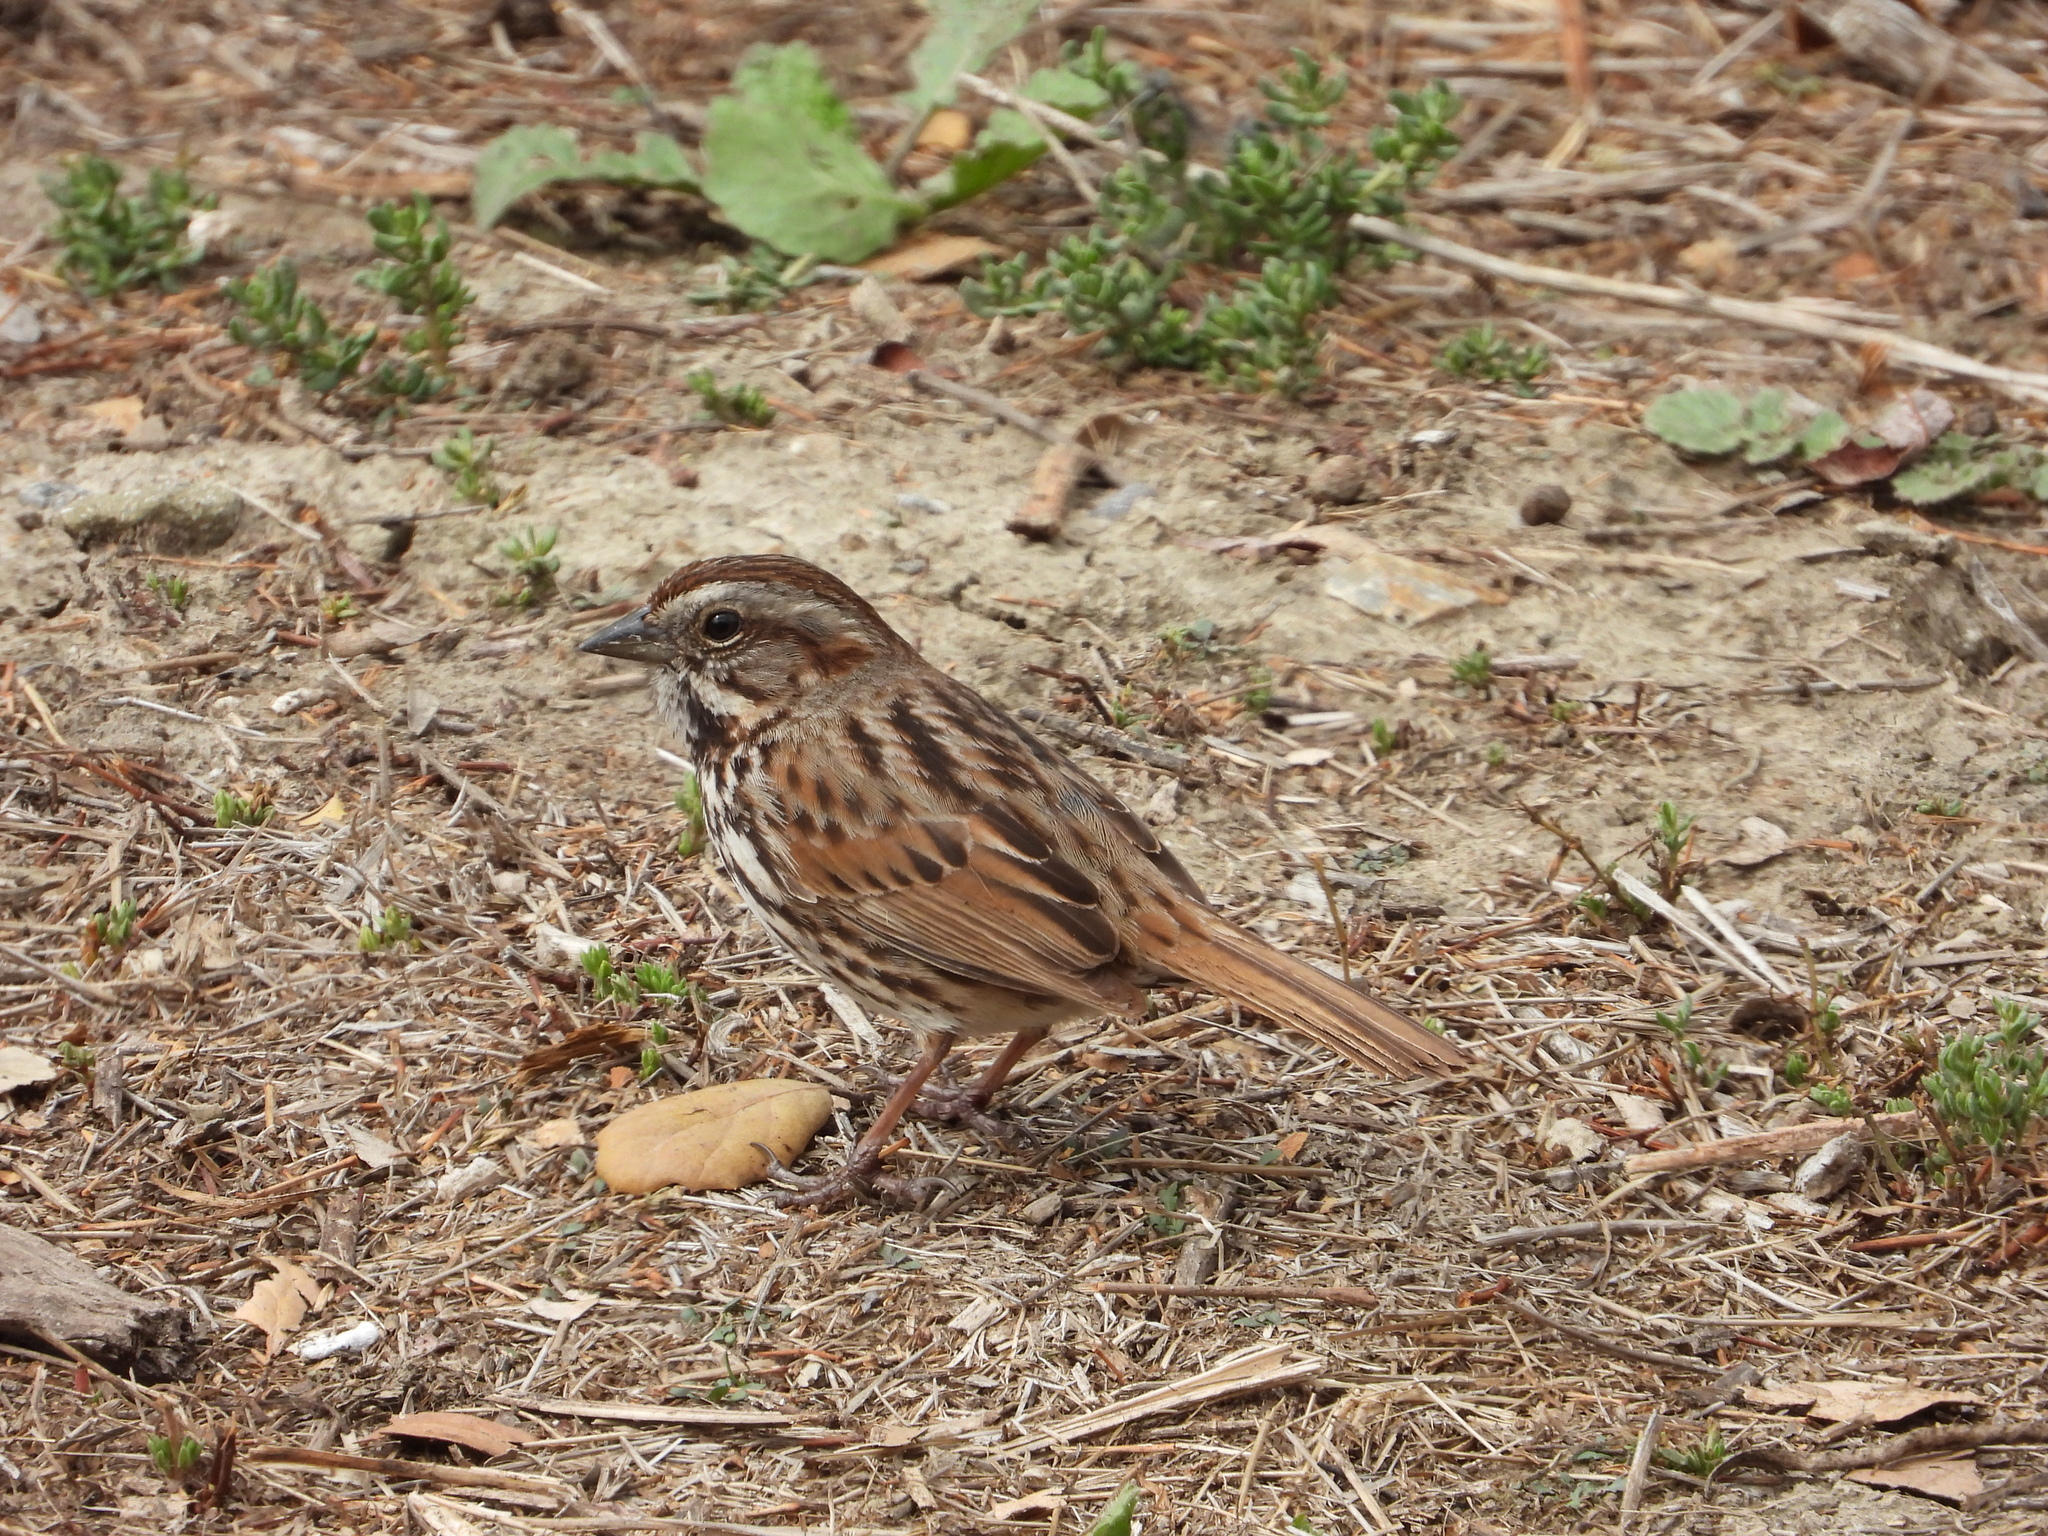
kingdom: Animalia
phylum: Chordata
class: Aves
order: Passeriformes
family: Passerellidae
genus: Melospiza
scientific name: Melospiza melodia
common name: Song sparrow
